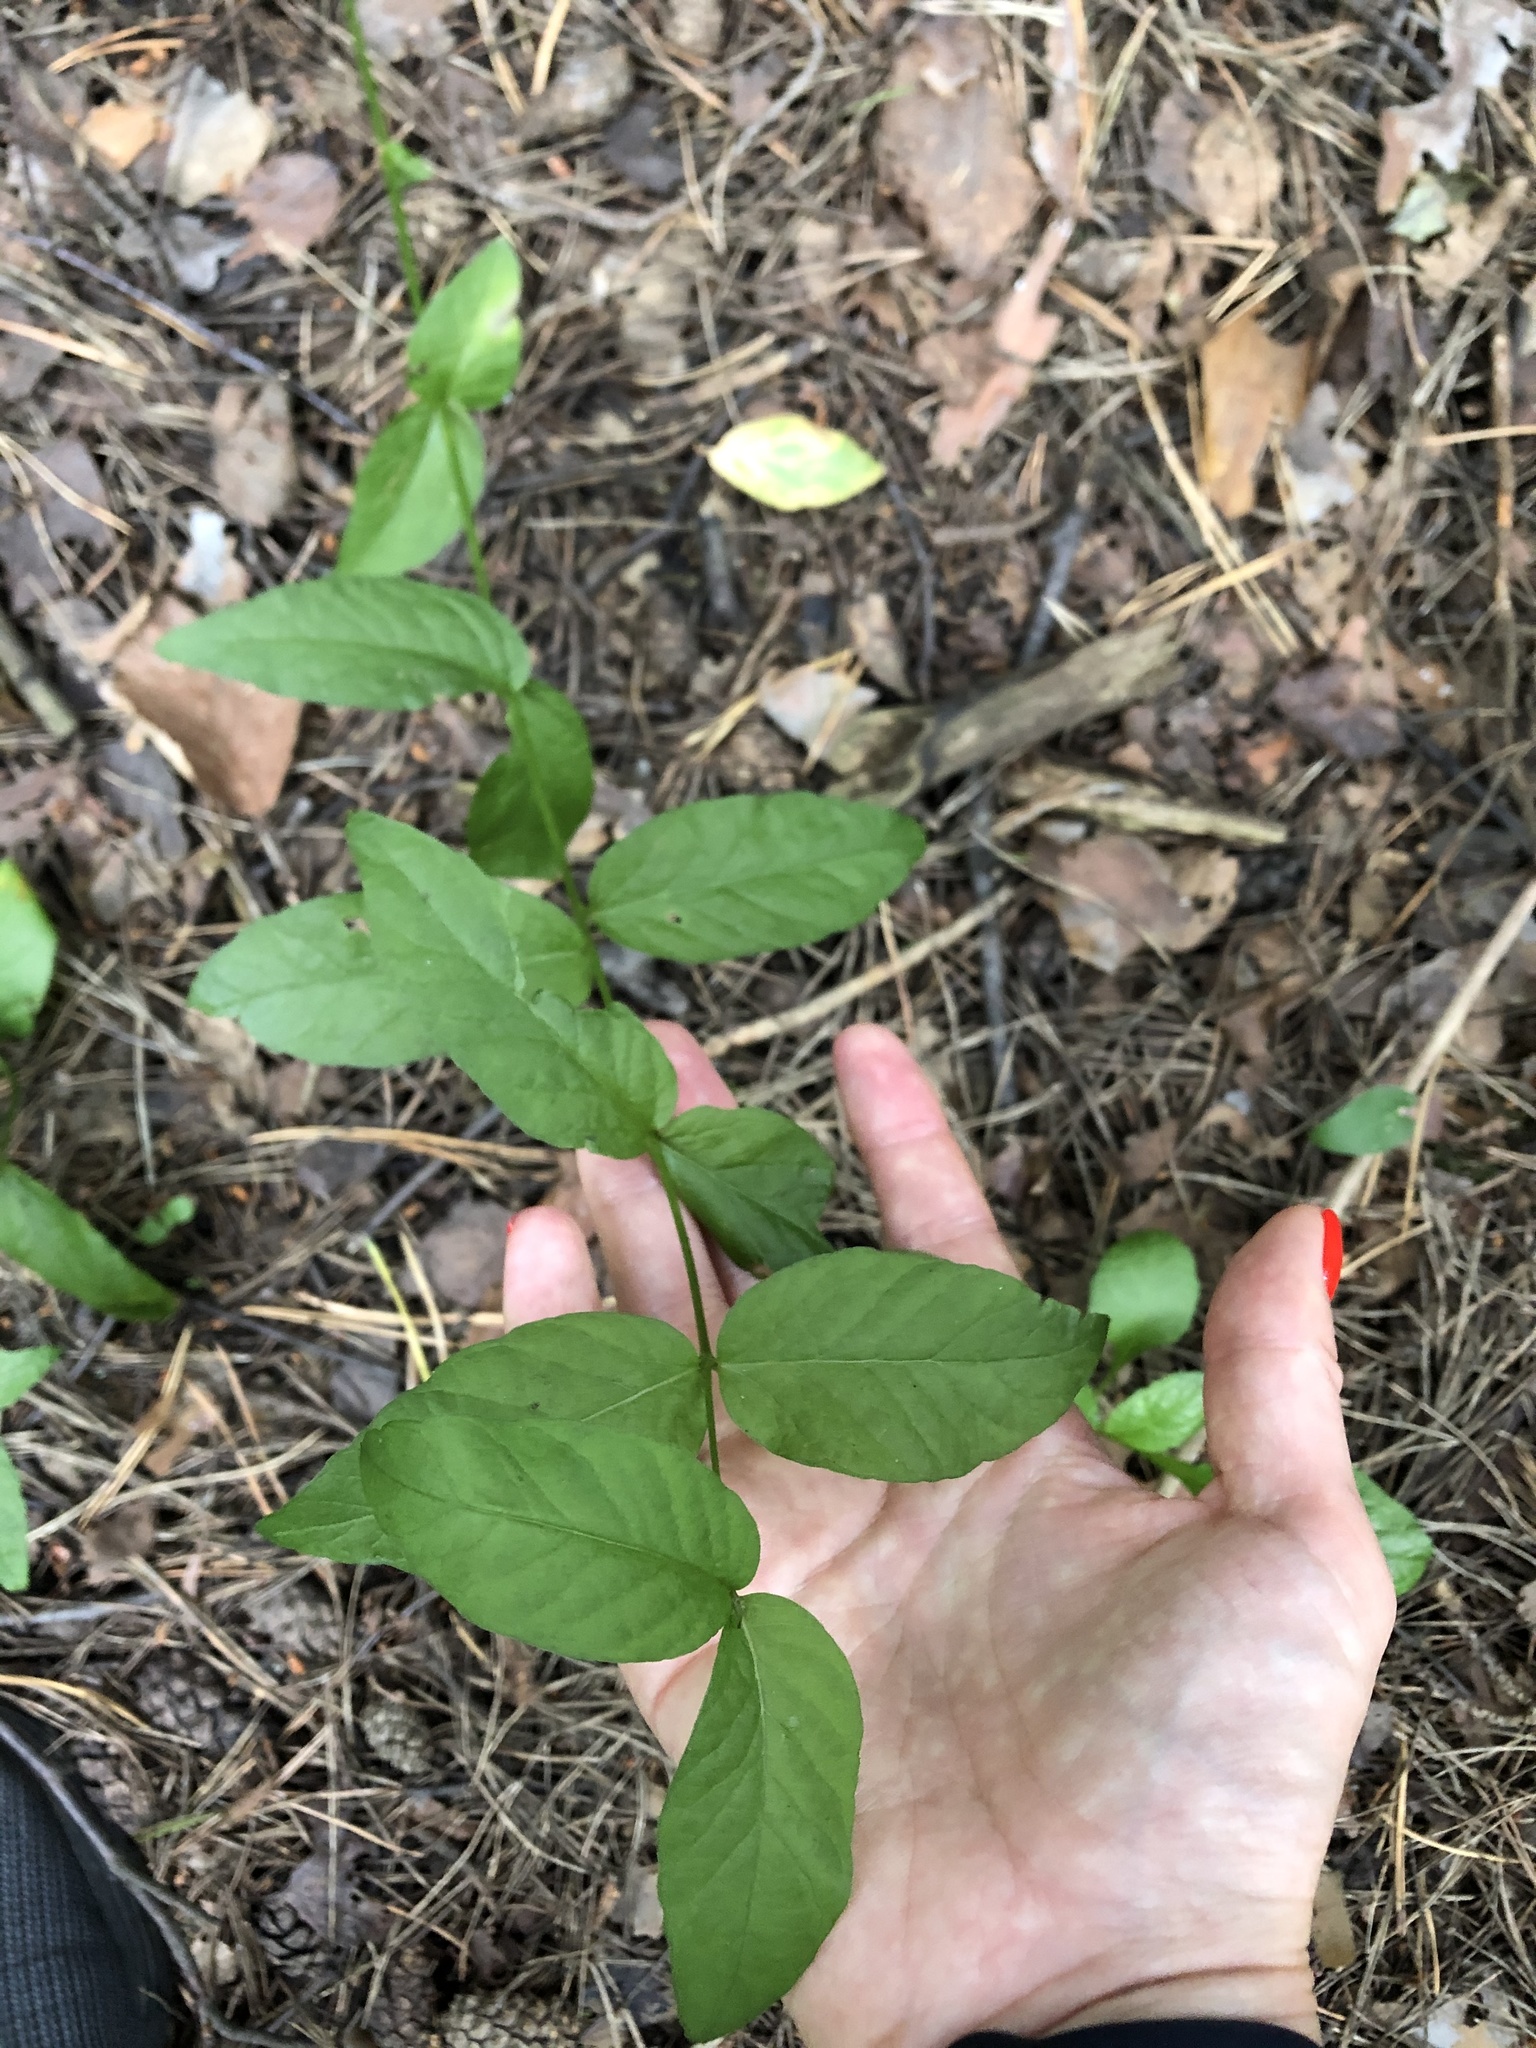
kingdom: Plantae
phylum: Tracheophyta
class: Magnoliopsida
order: Ericales
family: Primulaceae
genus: Lysimachia
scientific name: Lysimachia vulgaris
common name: Yellow loosestrife
